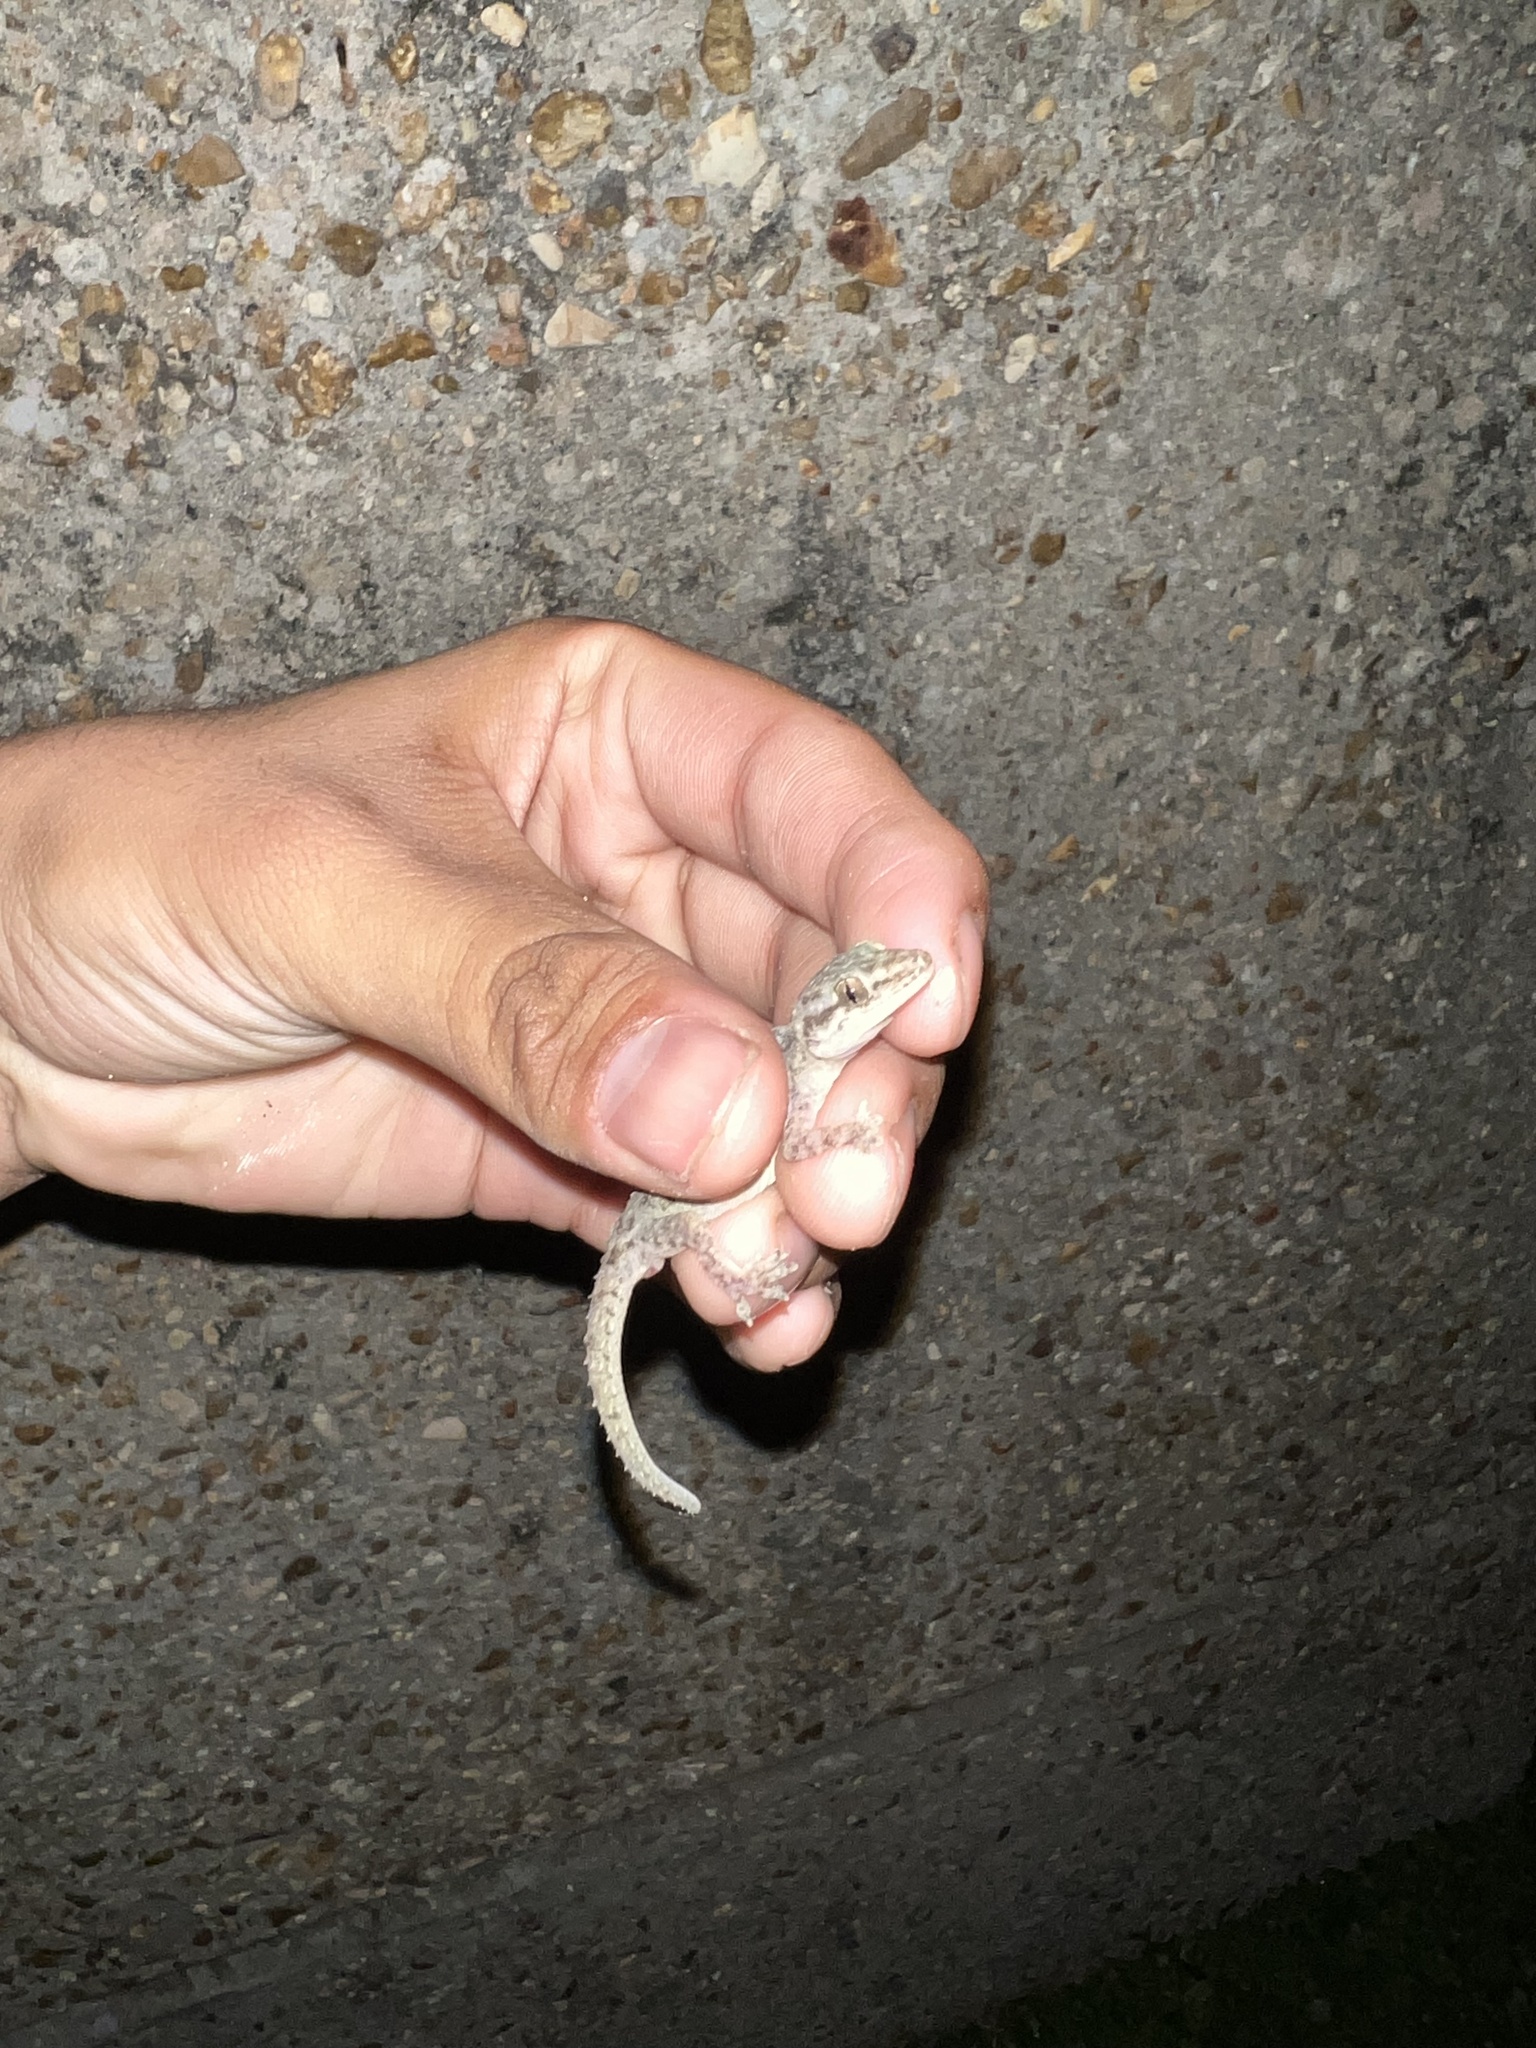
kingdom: Animalia
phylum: Chordata
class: Squamata
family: Gekkonidae
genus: Hemidactylus
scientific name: Hemidactylus parvimaculatus
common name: Spotted house gecko
